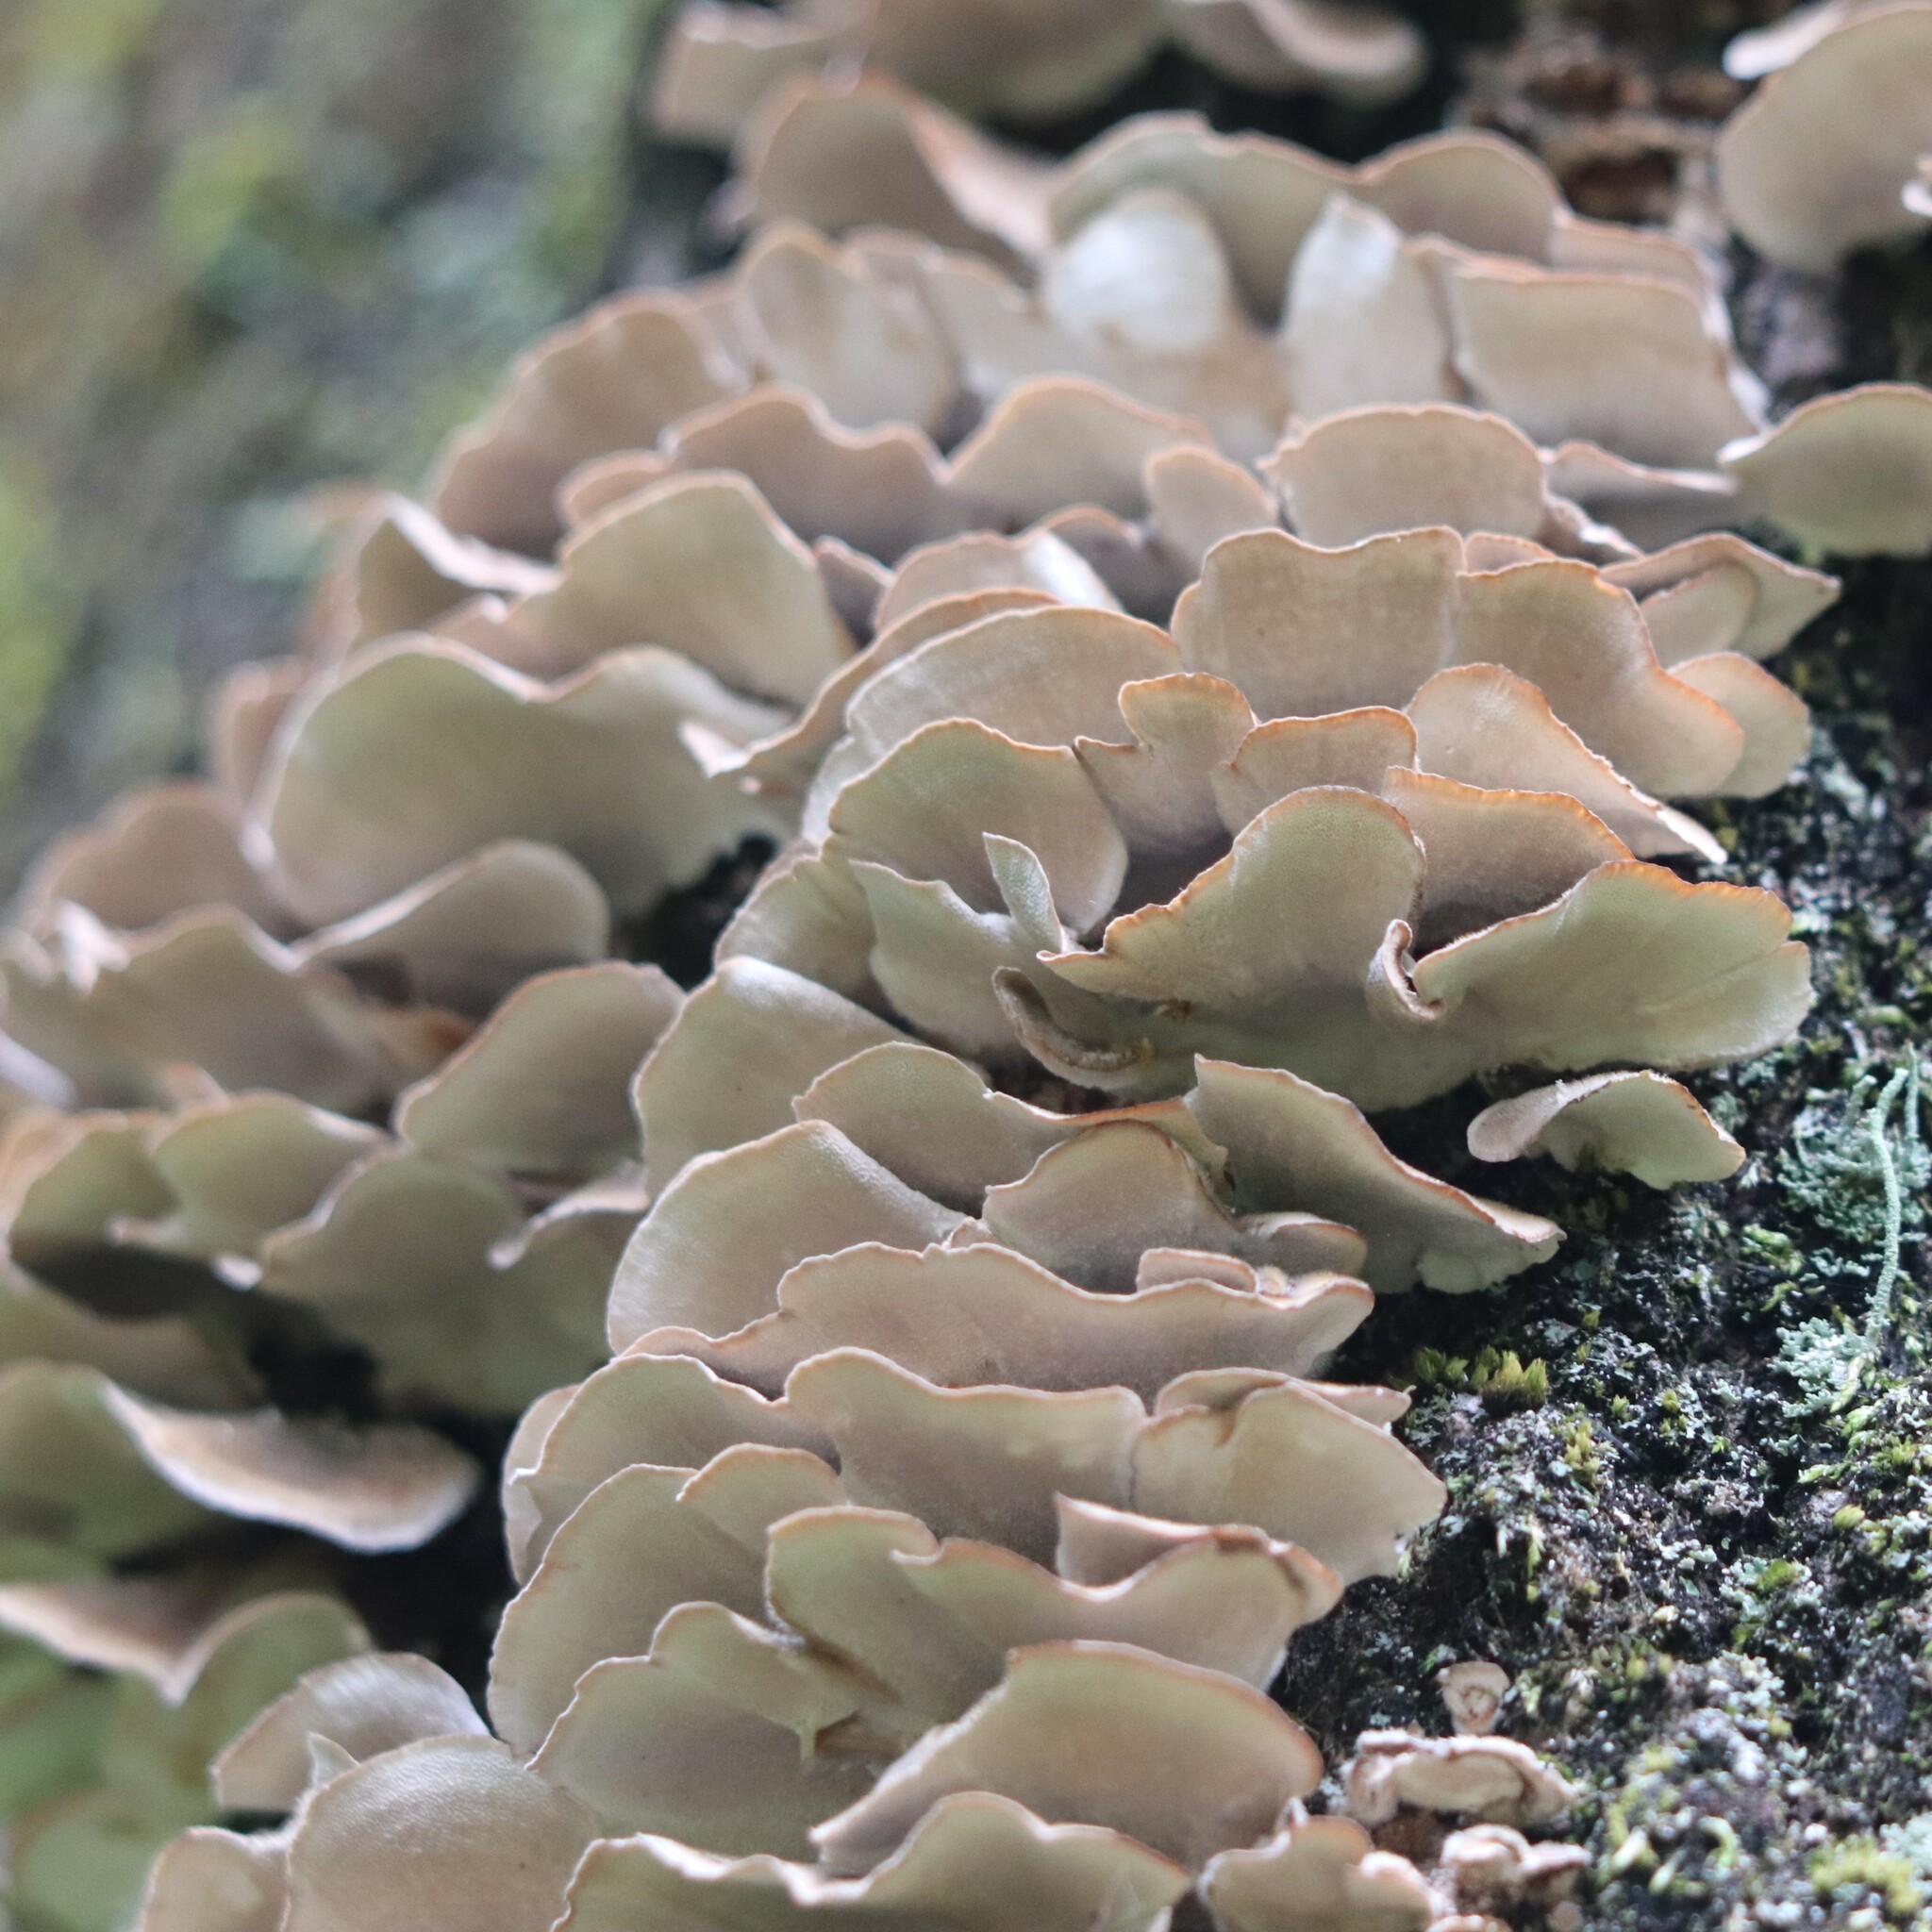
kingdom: Fungi
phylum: Basidiomycota
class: Agaricomycetes
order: Polyporales
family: Polyporaceae
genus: Trametes
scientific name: Trametes versicolor
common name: Turkeytail
